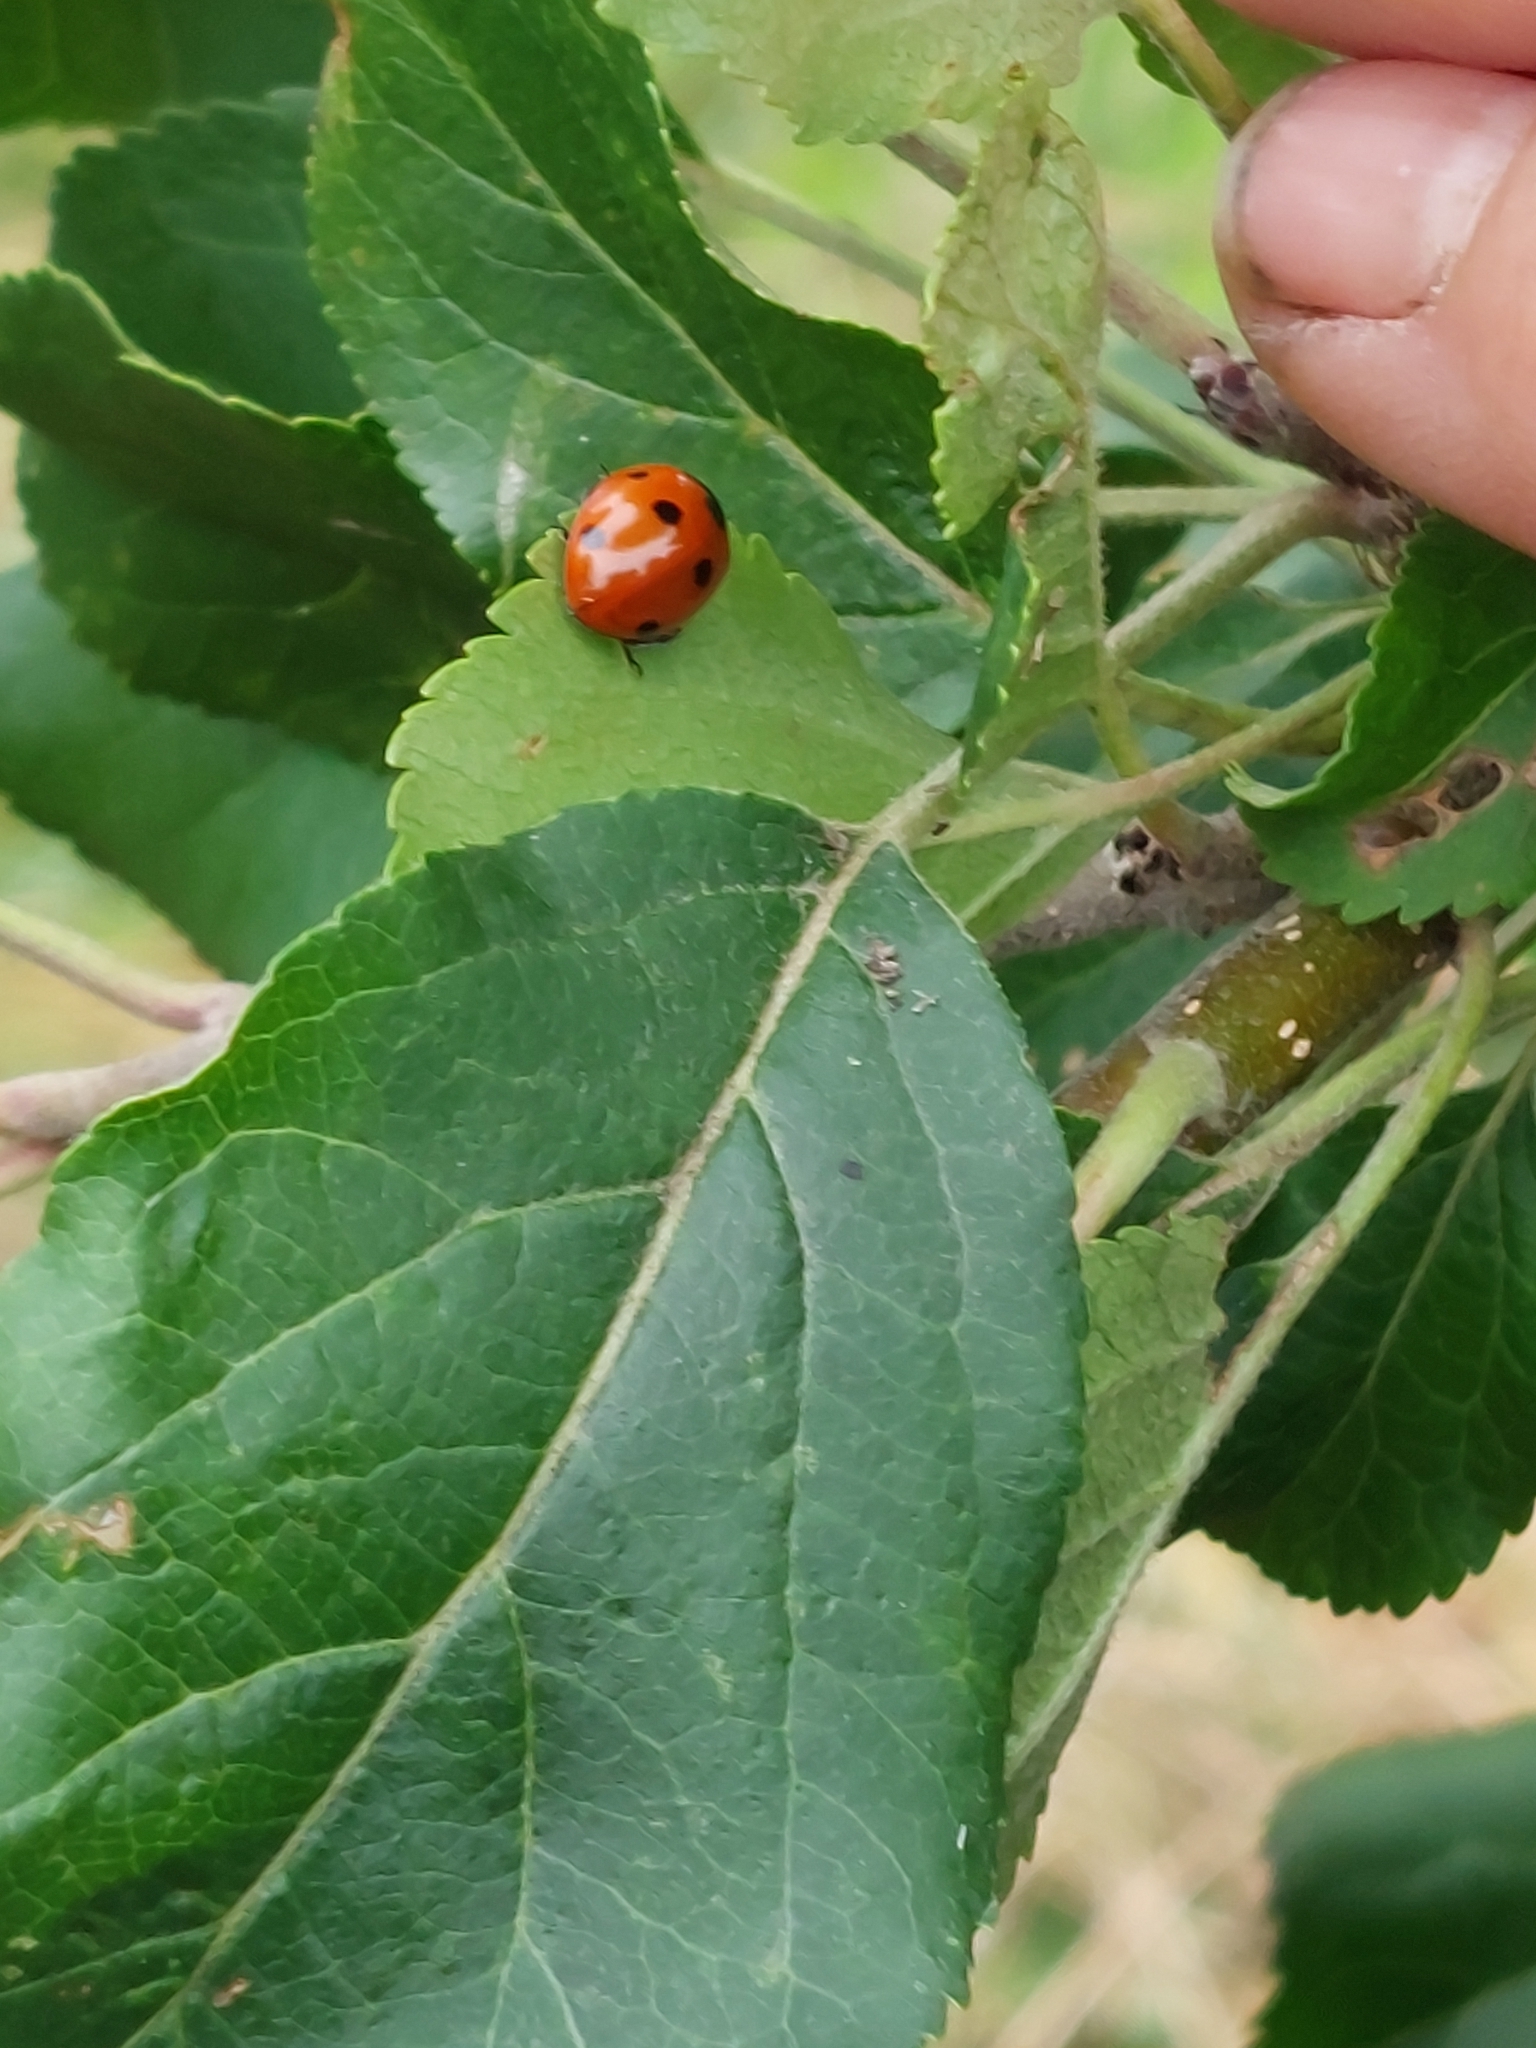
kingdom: Animalia
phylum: Arthropoda
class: Insecta
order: Coleoptera
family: Coccinellidae
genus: Coccinella
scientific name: Coccinella septempunctata
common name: Sevenspotted lady beetle
